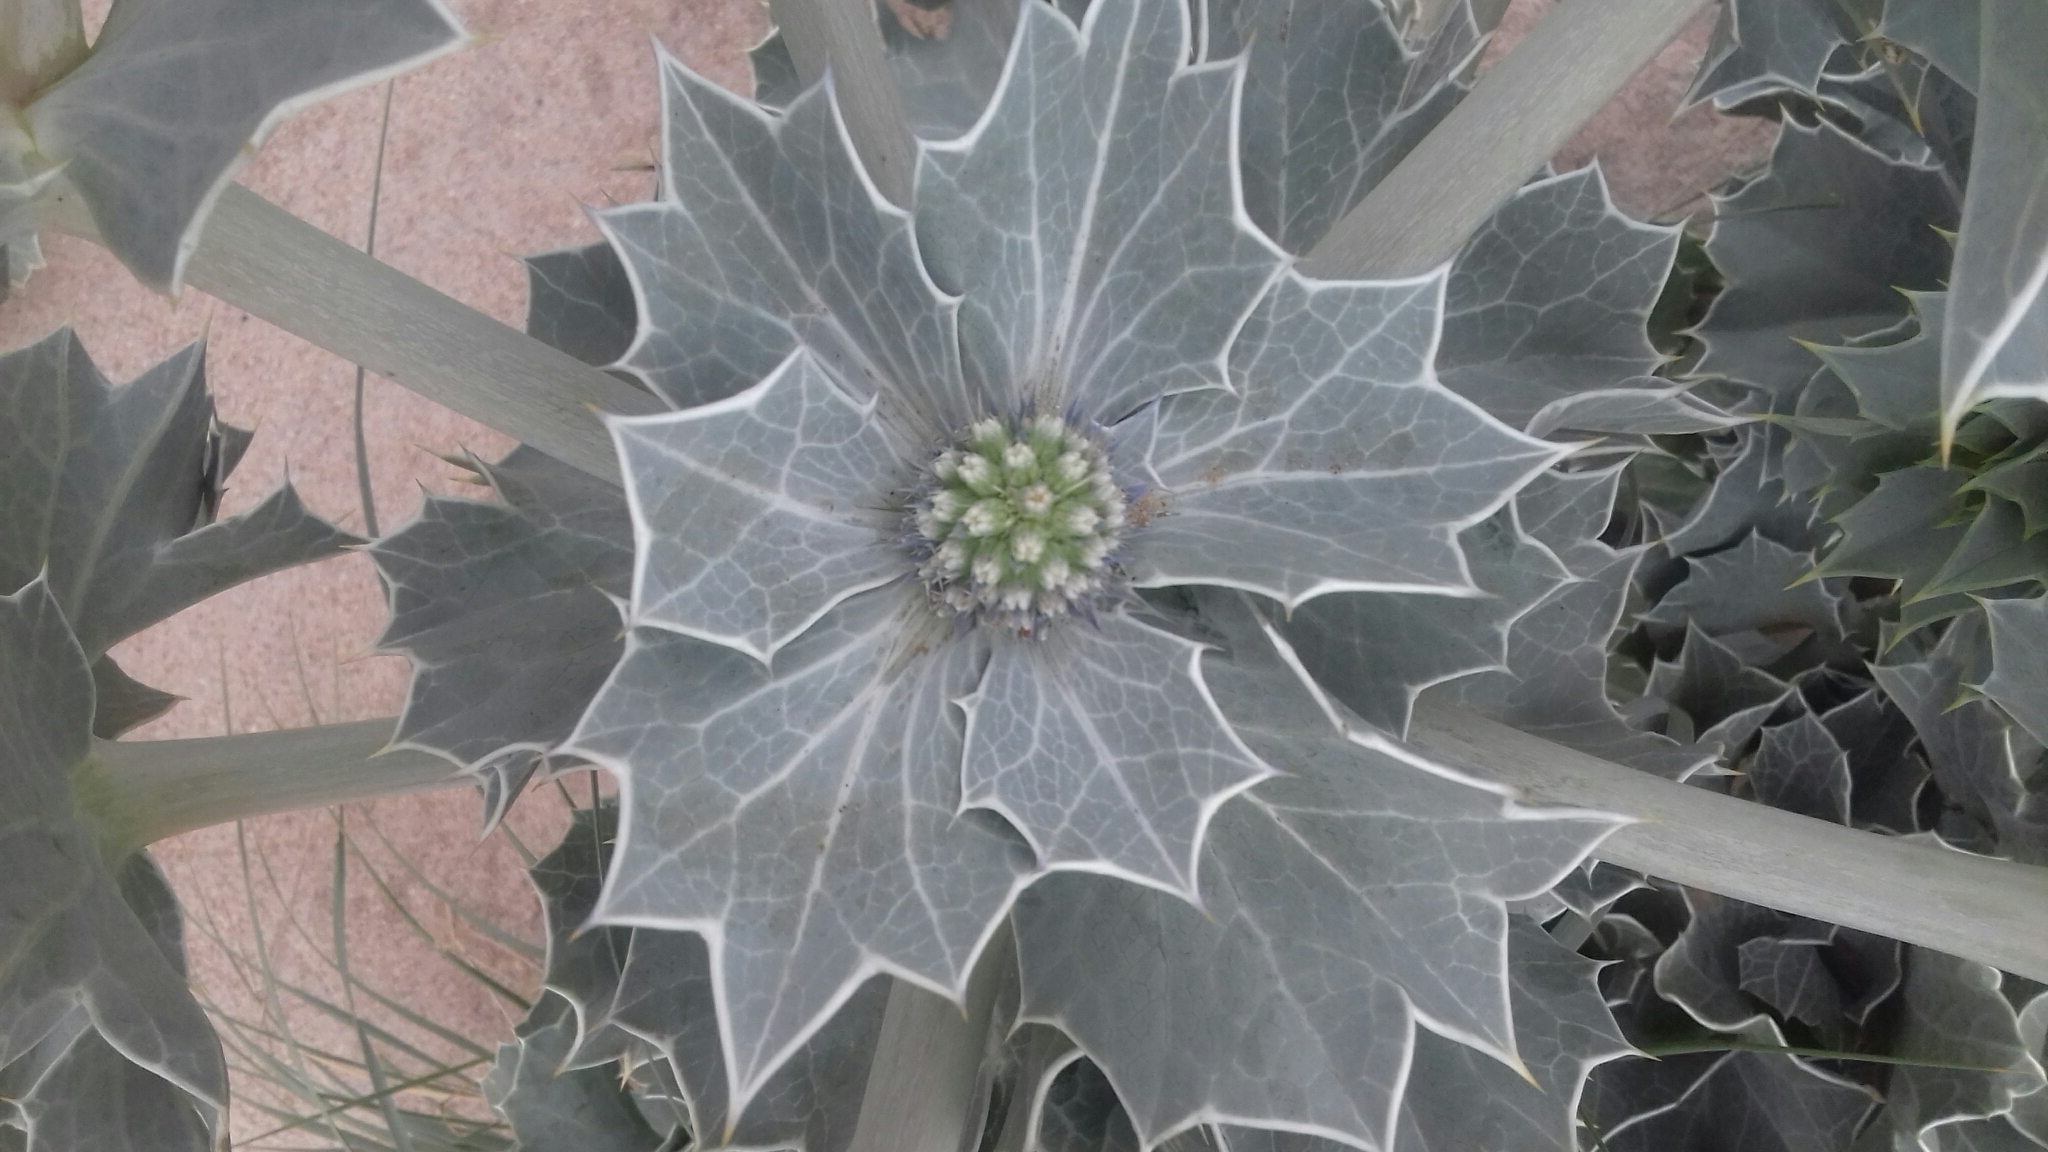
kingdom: Plantae
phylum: Tracheophyta
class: Magnoliopsida
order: Apiales
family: Apiaceae
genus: Eryngium
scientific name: Eryngium maritimum
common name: Sea-holly
